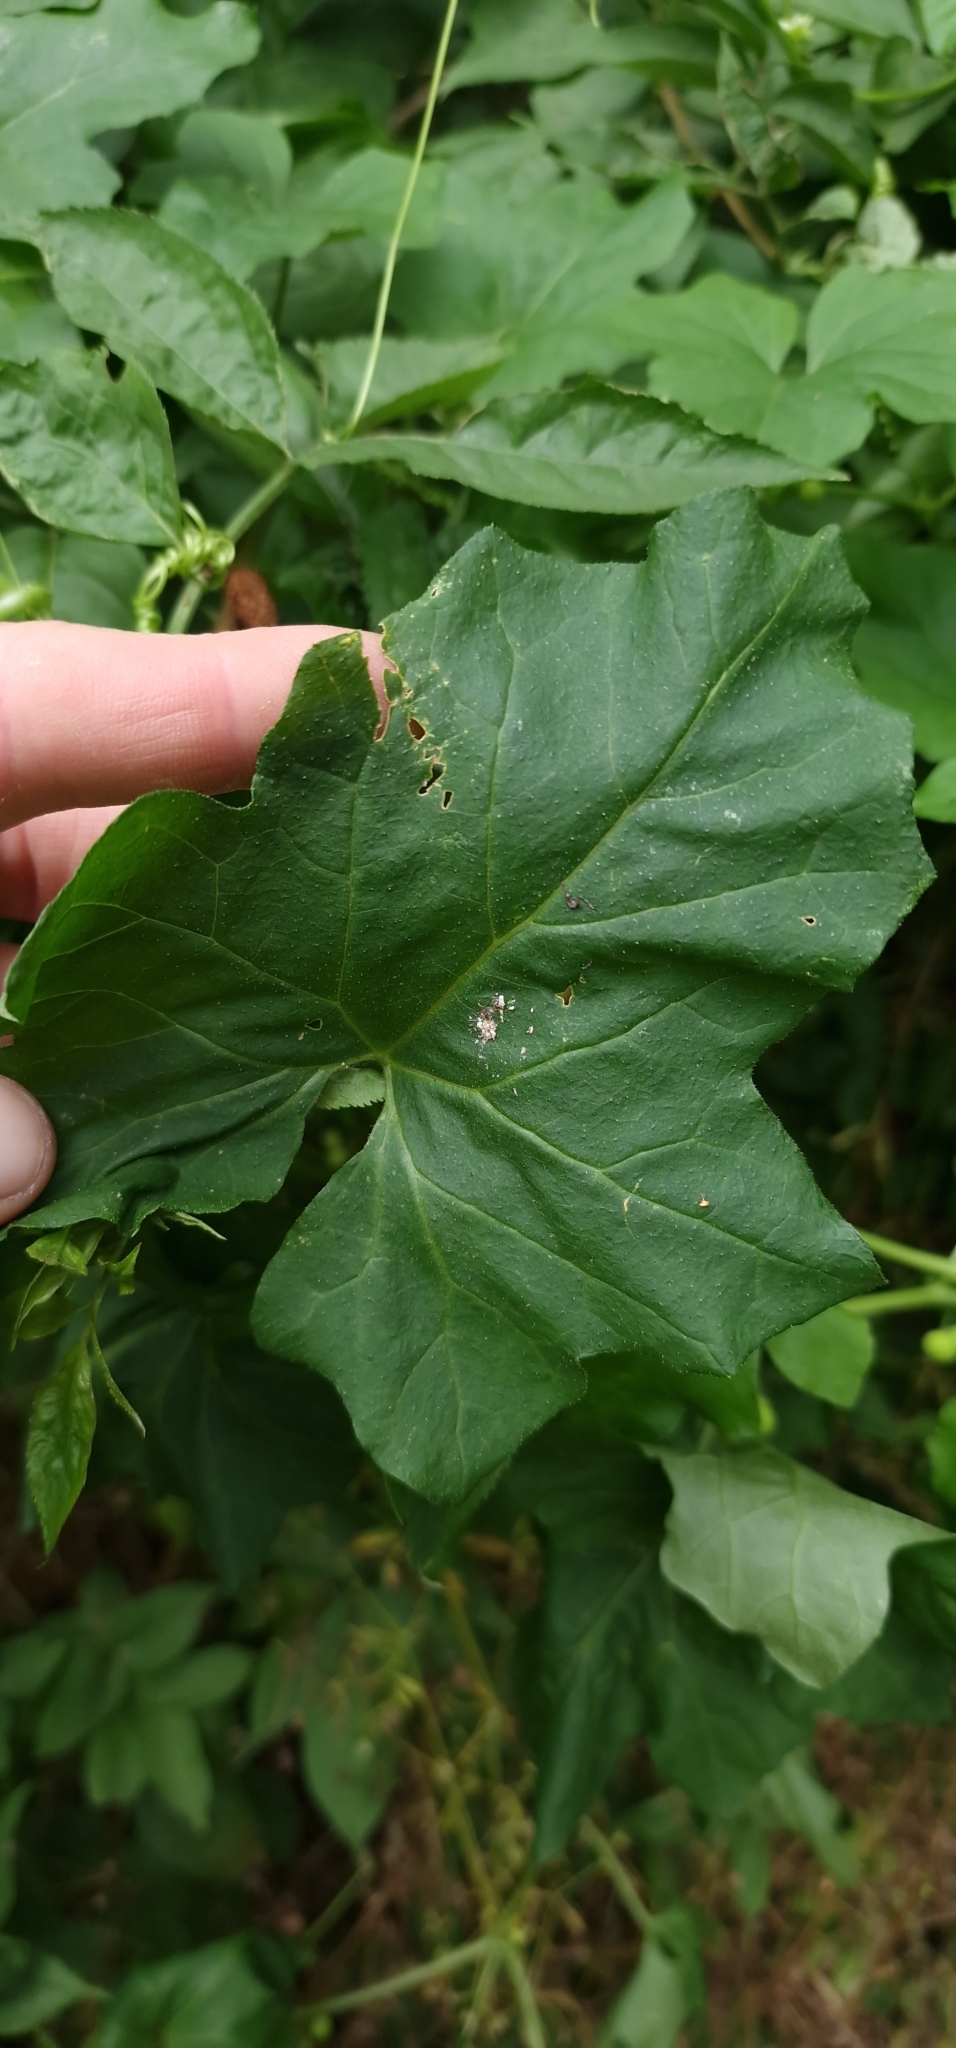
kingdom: Plantae
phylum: Tracheophyta
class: Magnoliopsida
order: Cucurbitales
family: Cucurbitaceae
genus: Bryonia
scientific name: Bryonia cretica
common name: Cretan bryony
